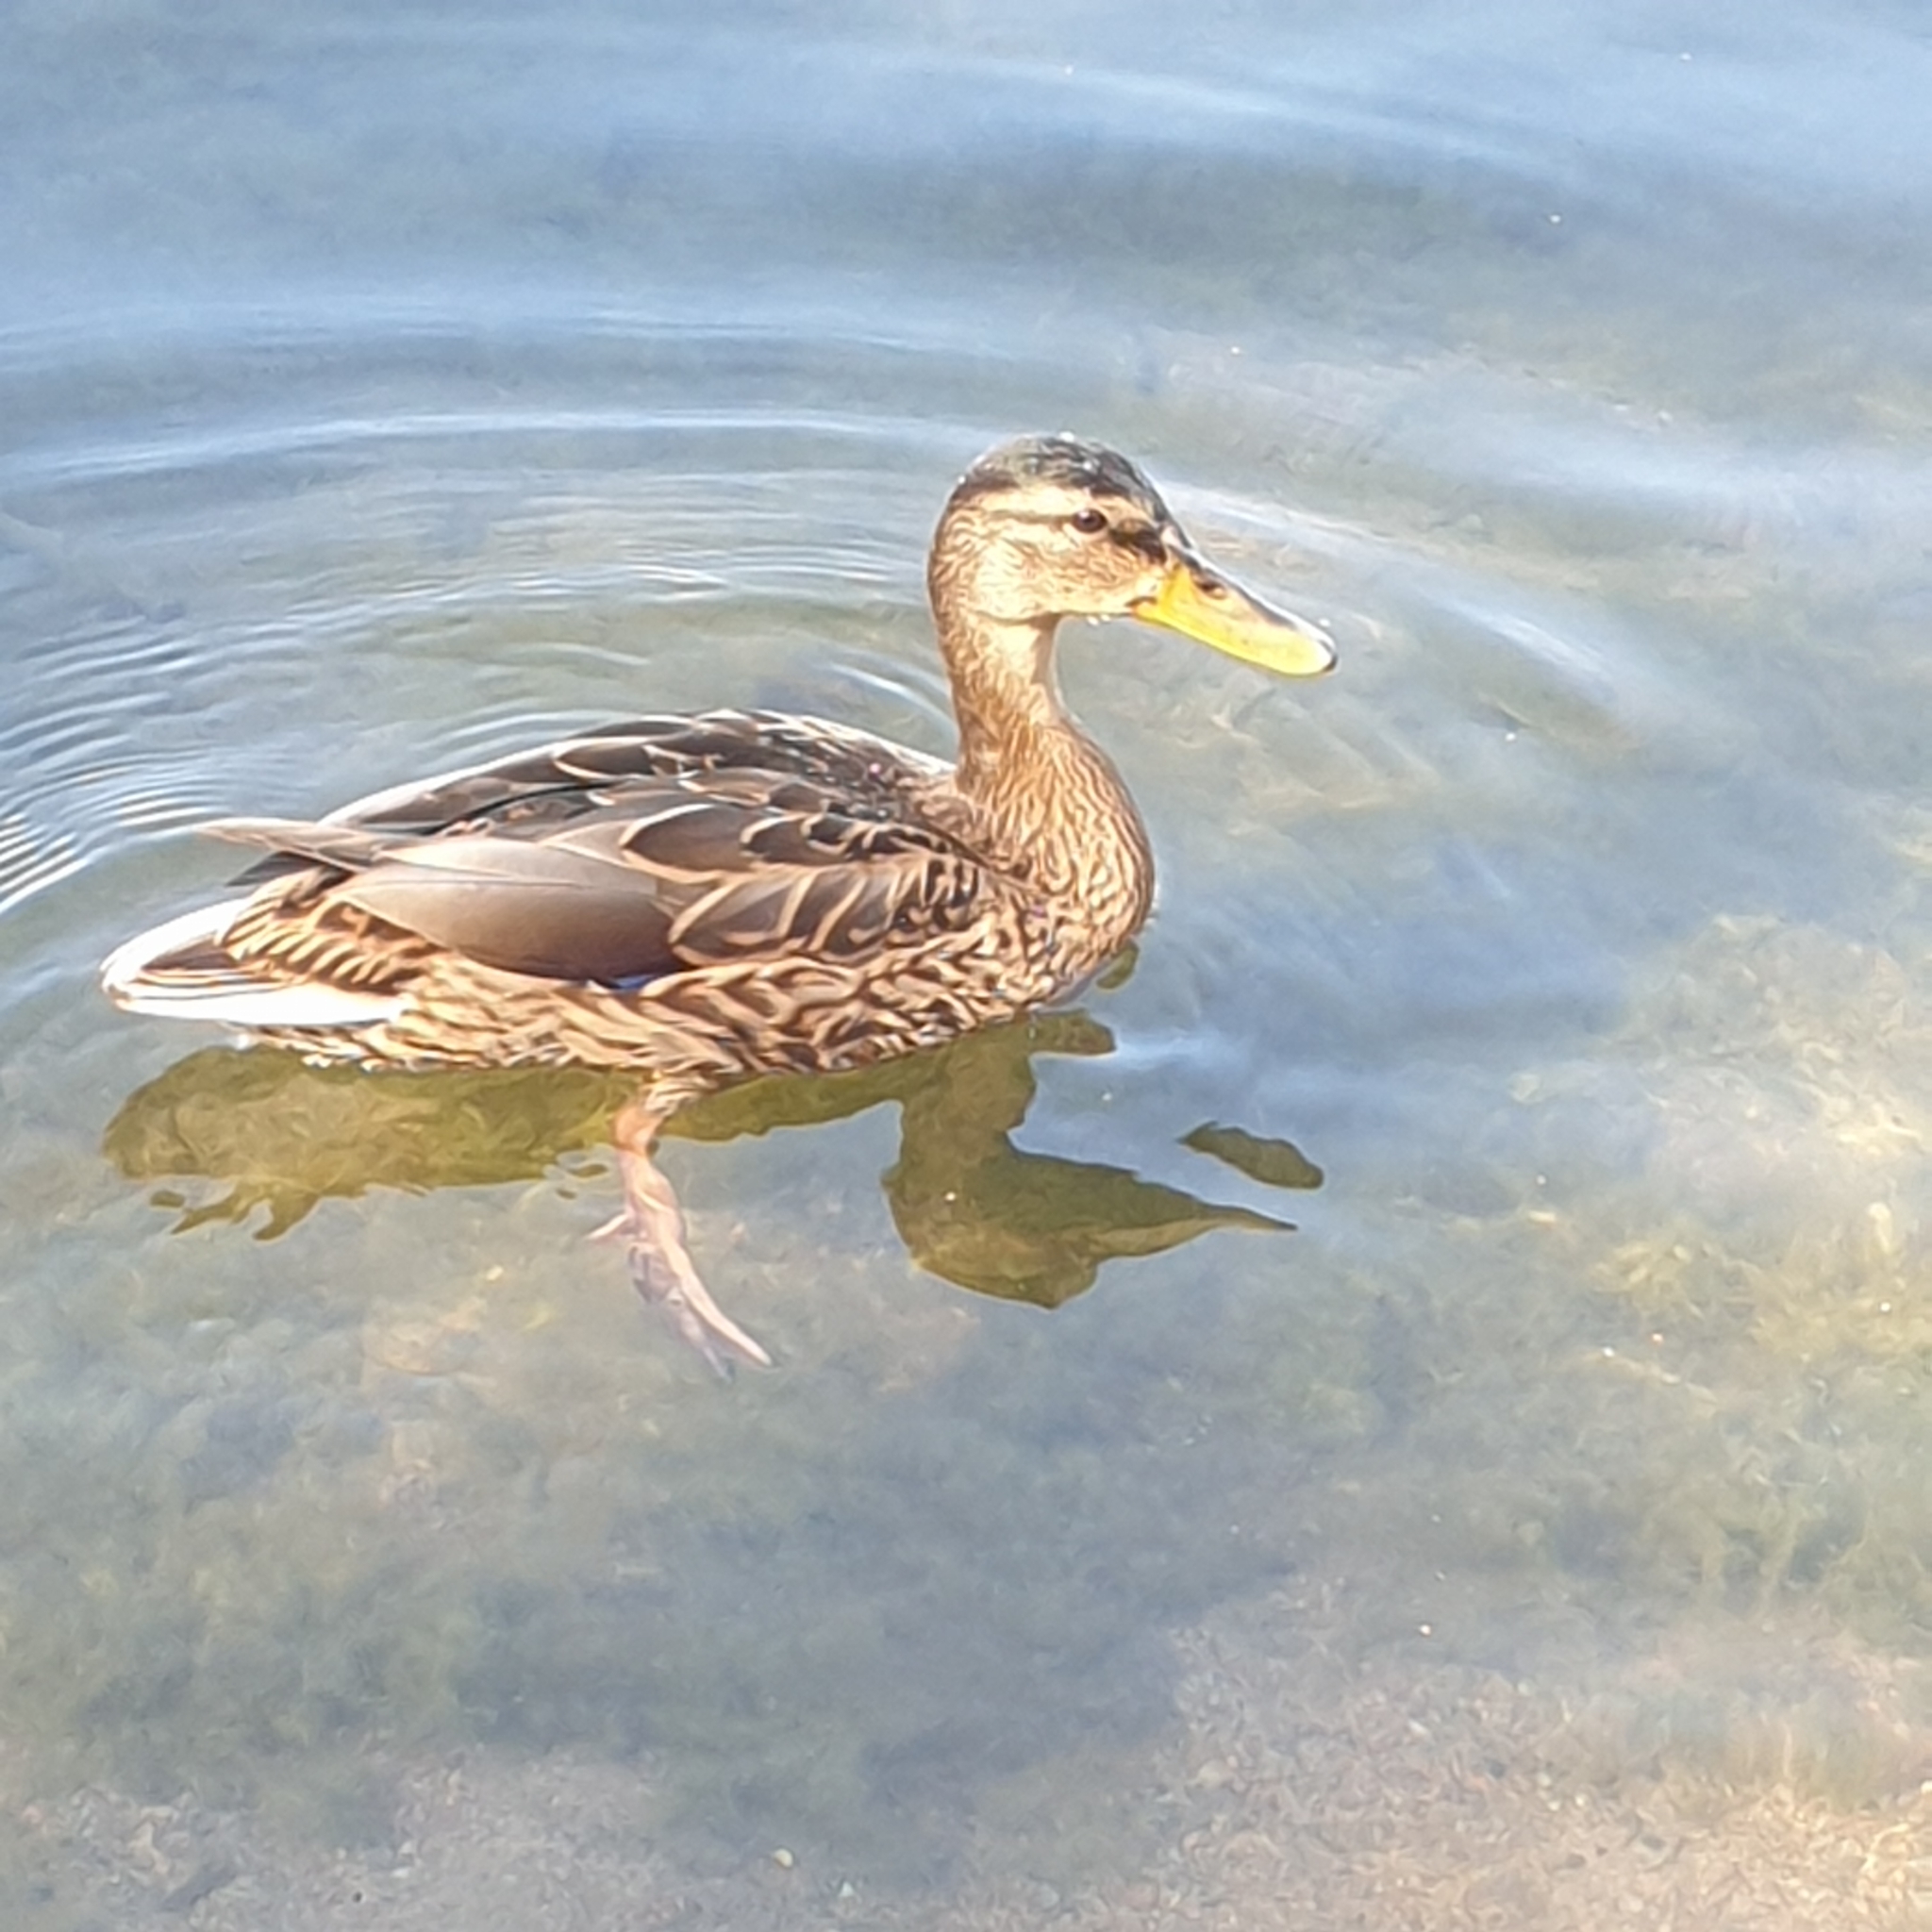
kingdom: Animalia
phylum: Chordata
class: Aves
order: Anseriformes
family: Anatidae
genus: Anas
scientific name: Anas platyrhynchos
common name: Mallard
